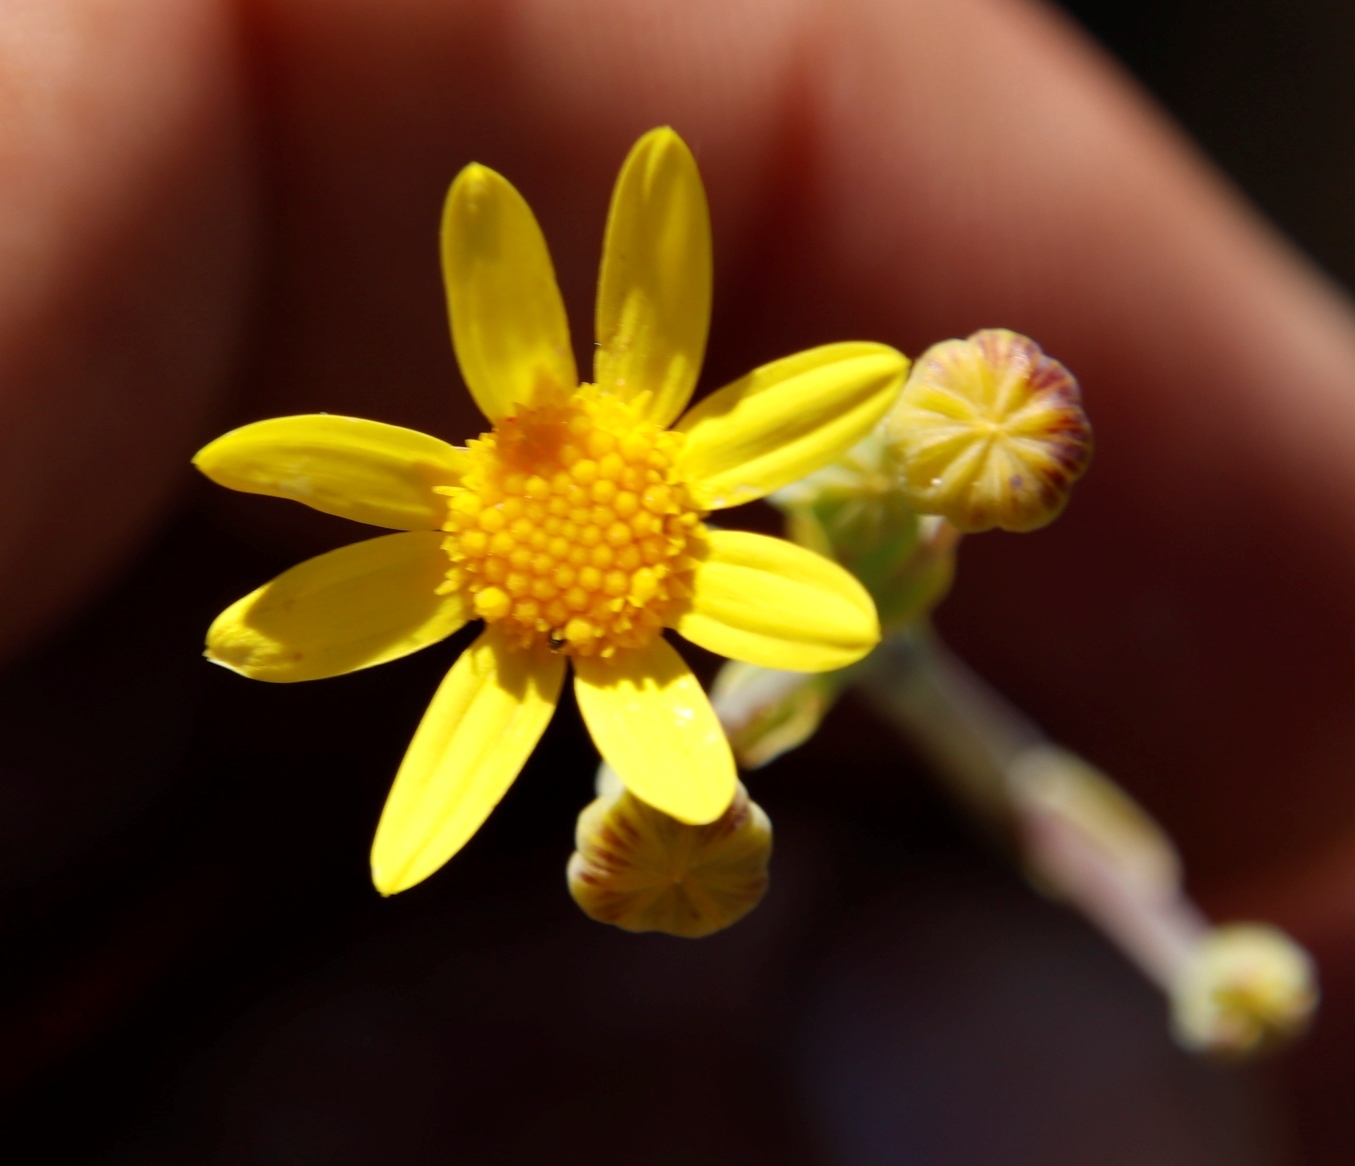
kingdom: Plantae
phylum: Tracheophyta
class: Magnoliopsida
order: Asterales
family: Asteraceae
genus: Othonna
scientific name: Othonna quinquedentata
